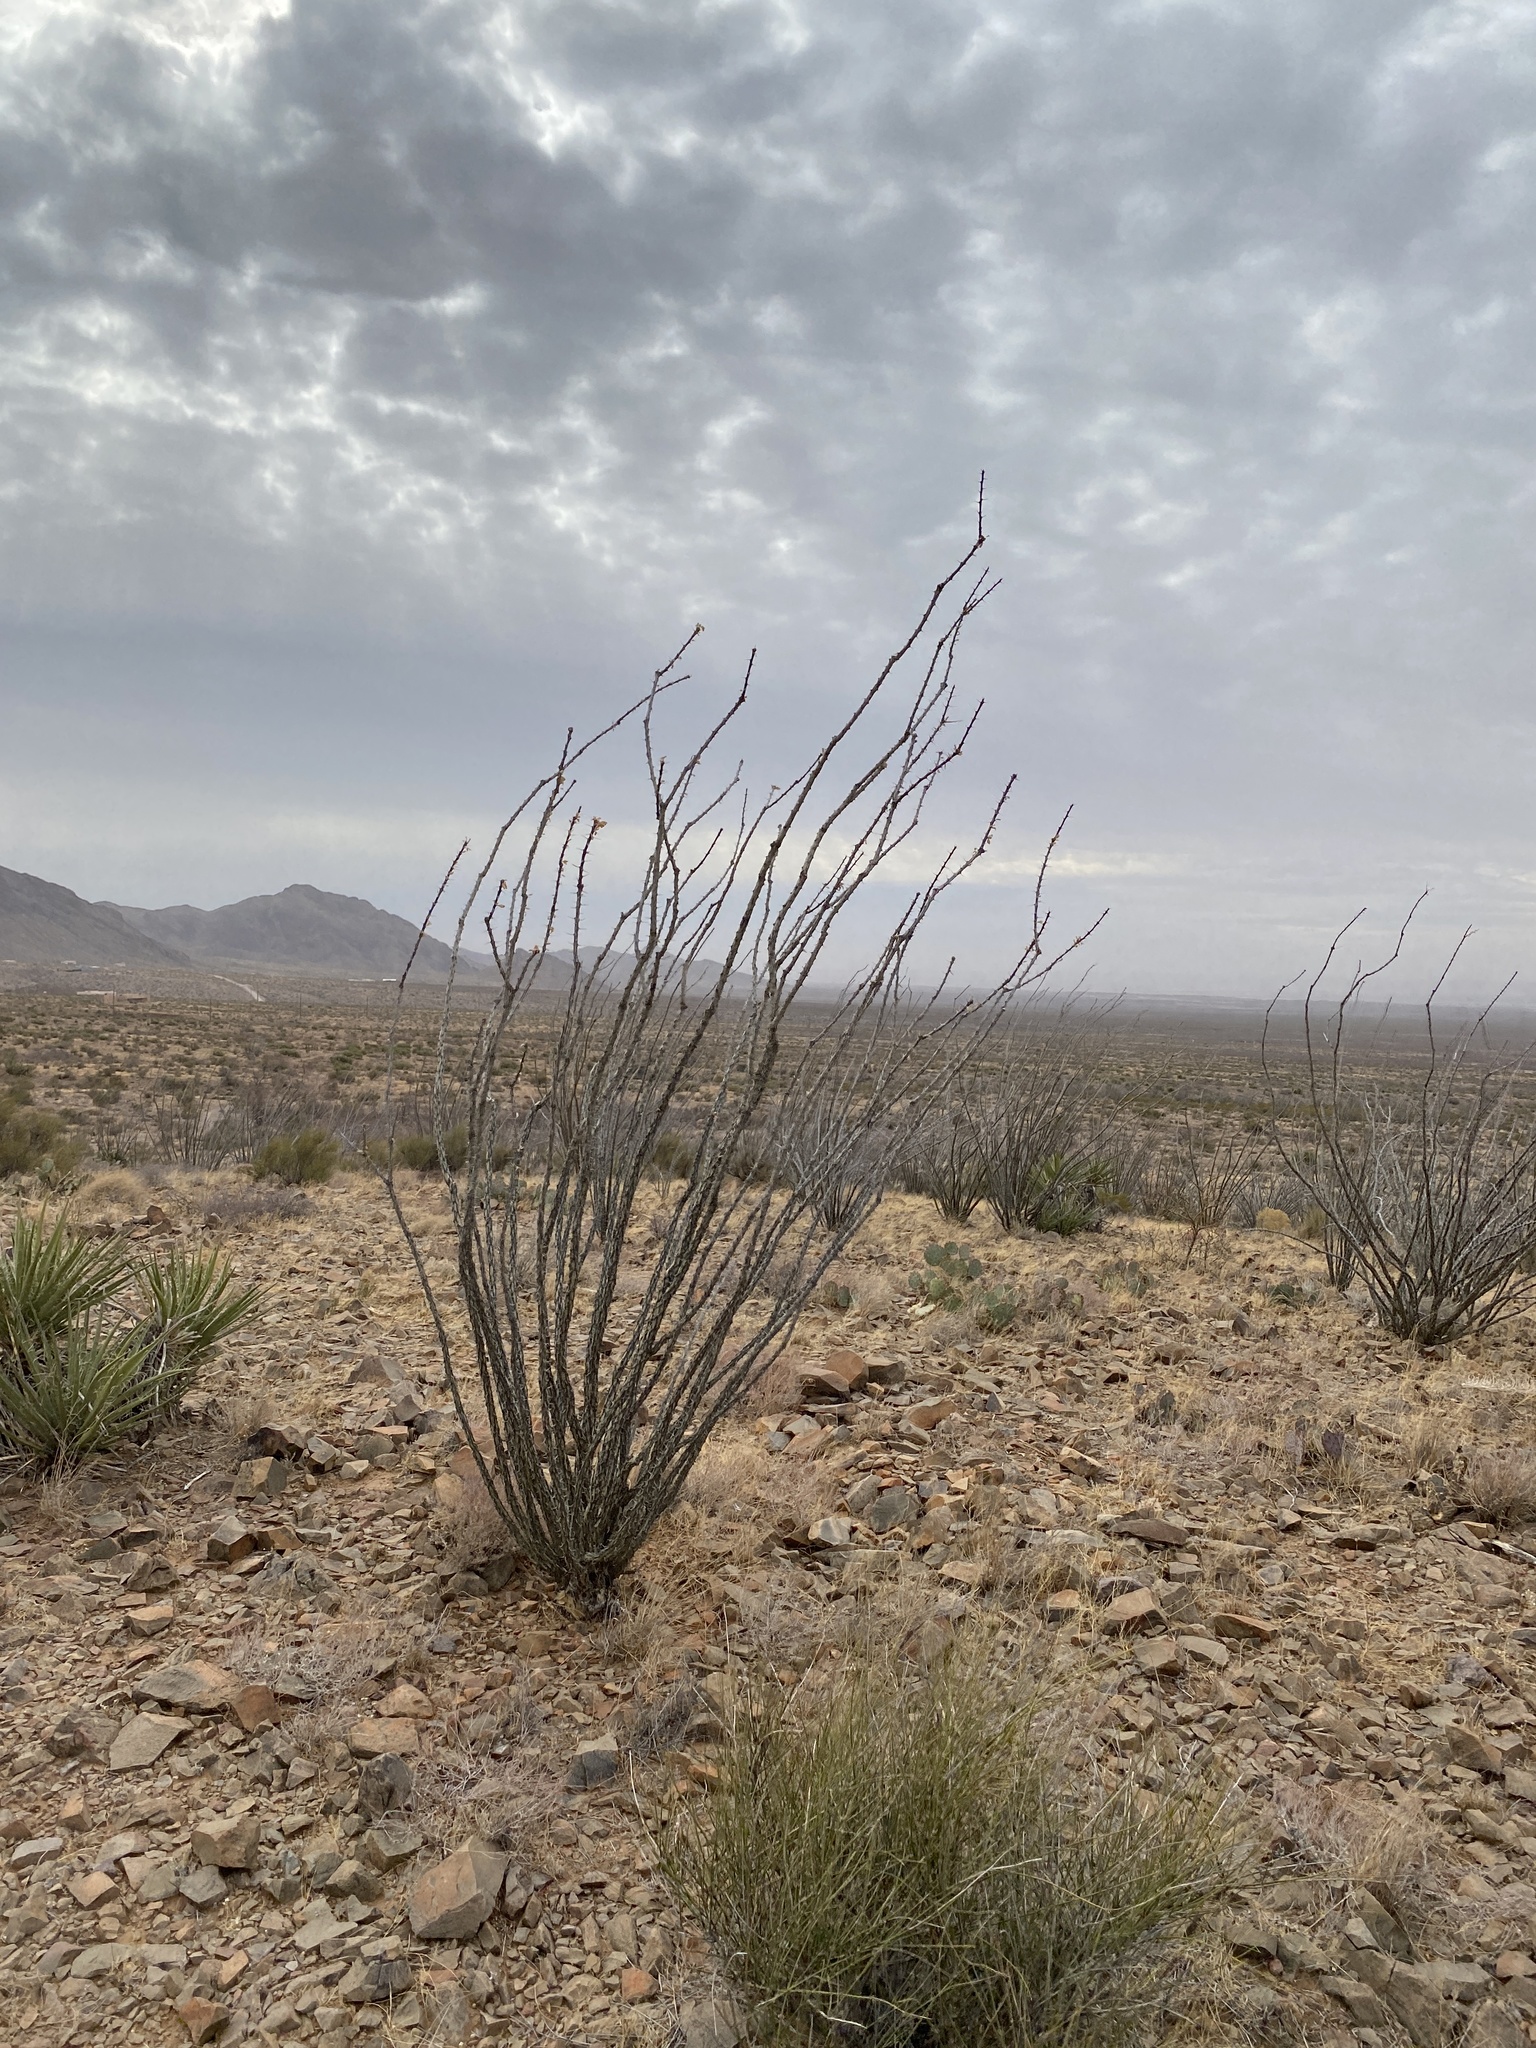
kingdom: Plantae
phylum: Tracheophyta
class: Magnoliopsida
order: Ericales
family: Fouquieriaceae
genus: Fouquieria
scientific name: Fouquieria splendens
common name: Vine-cactus
